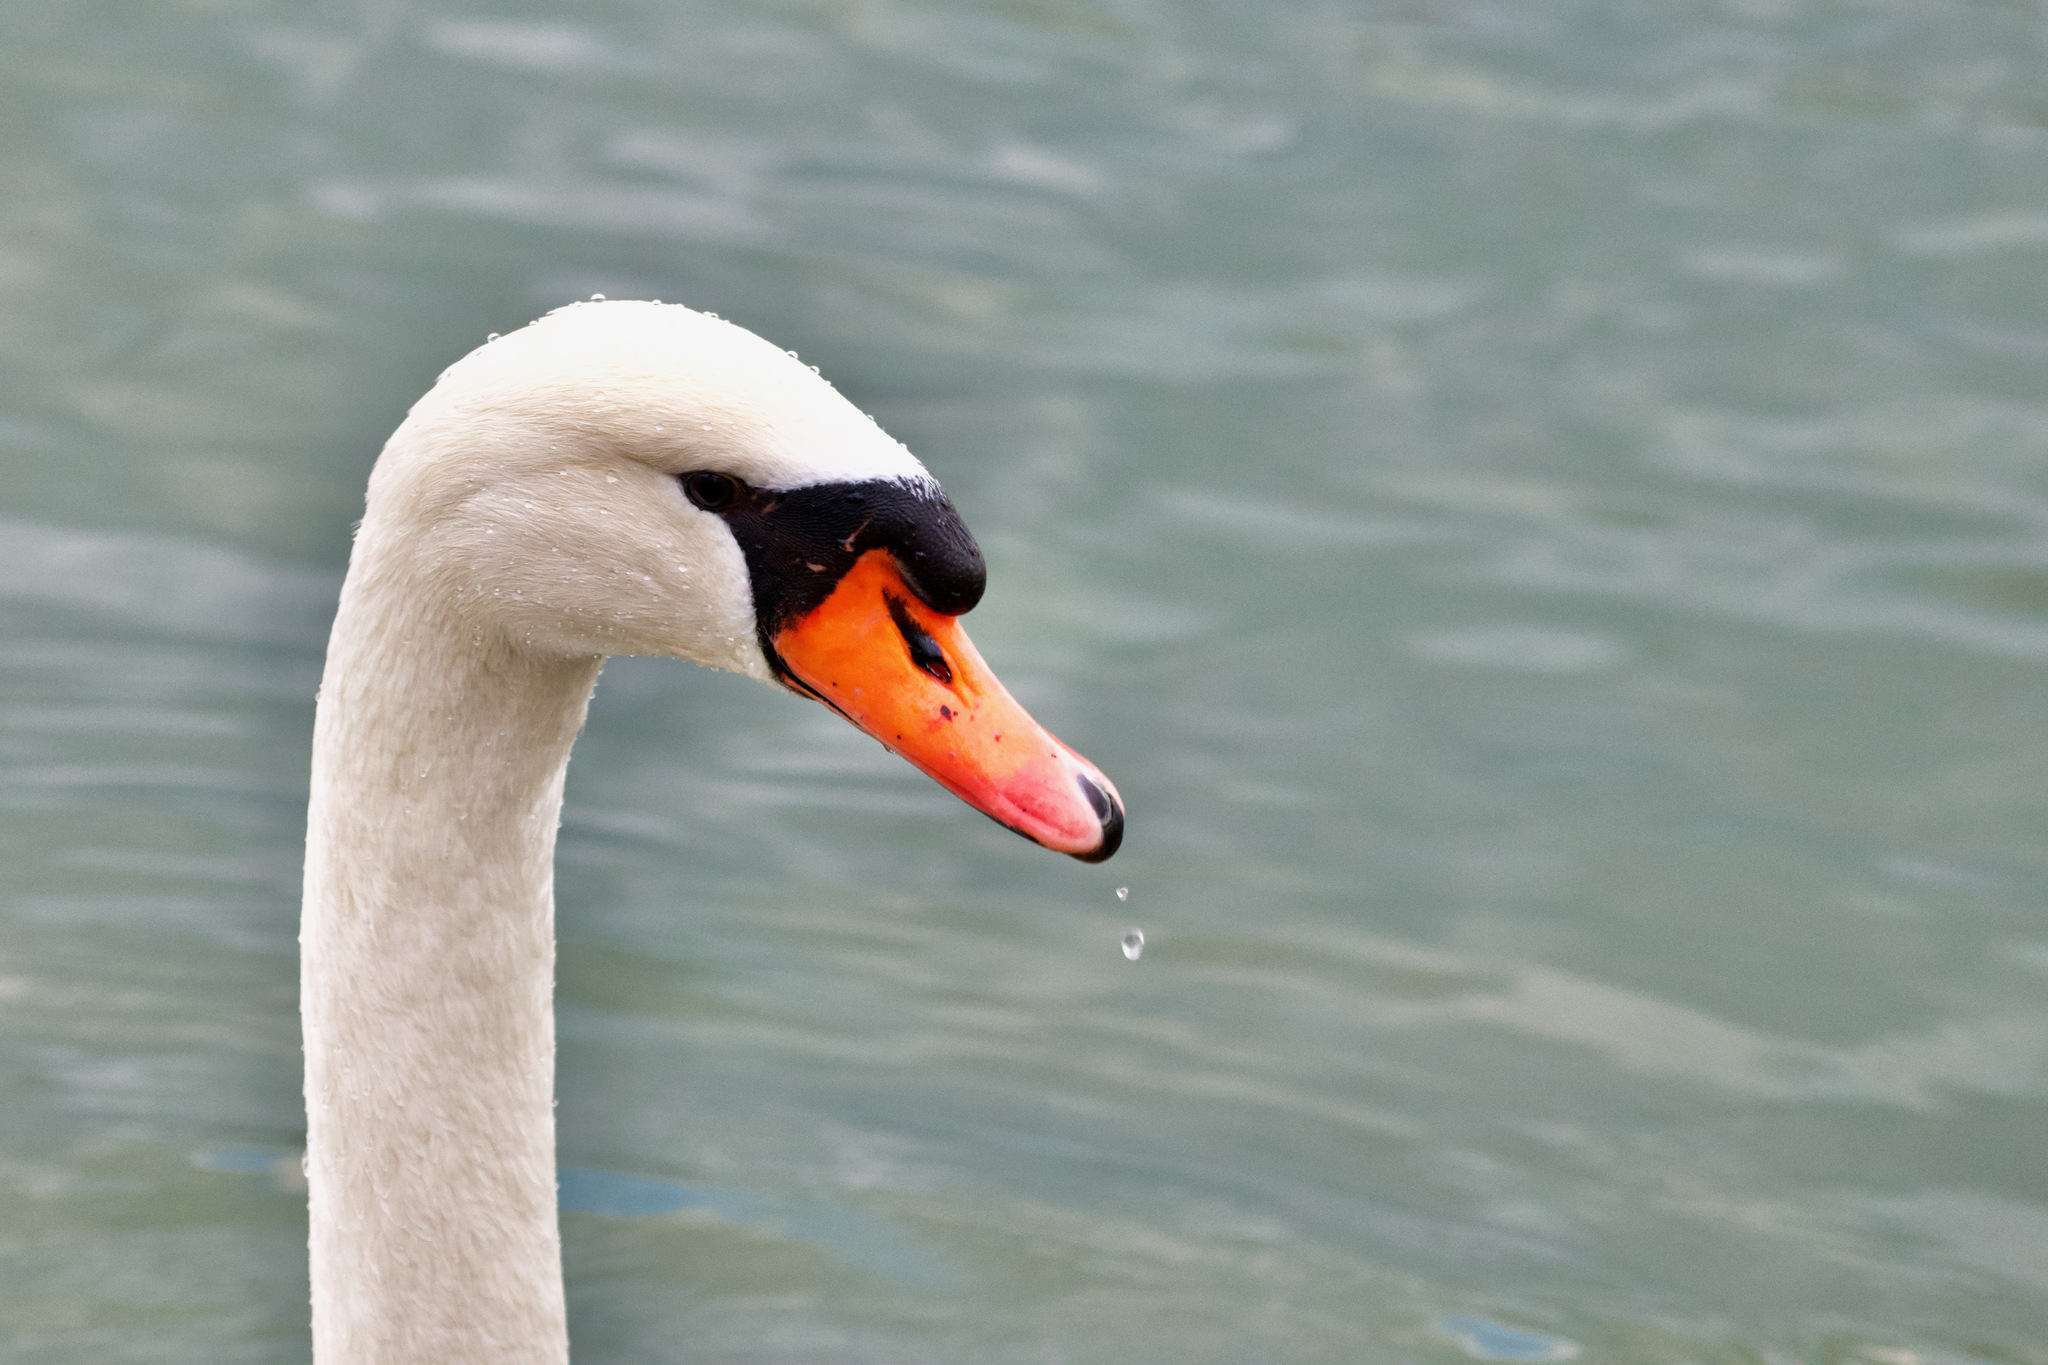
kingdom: Animalia
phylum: Chordata
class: Aves
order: Anseriformes
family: Anatidae
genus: Cygnus
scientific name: Cygnus olor
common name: Mute swan
